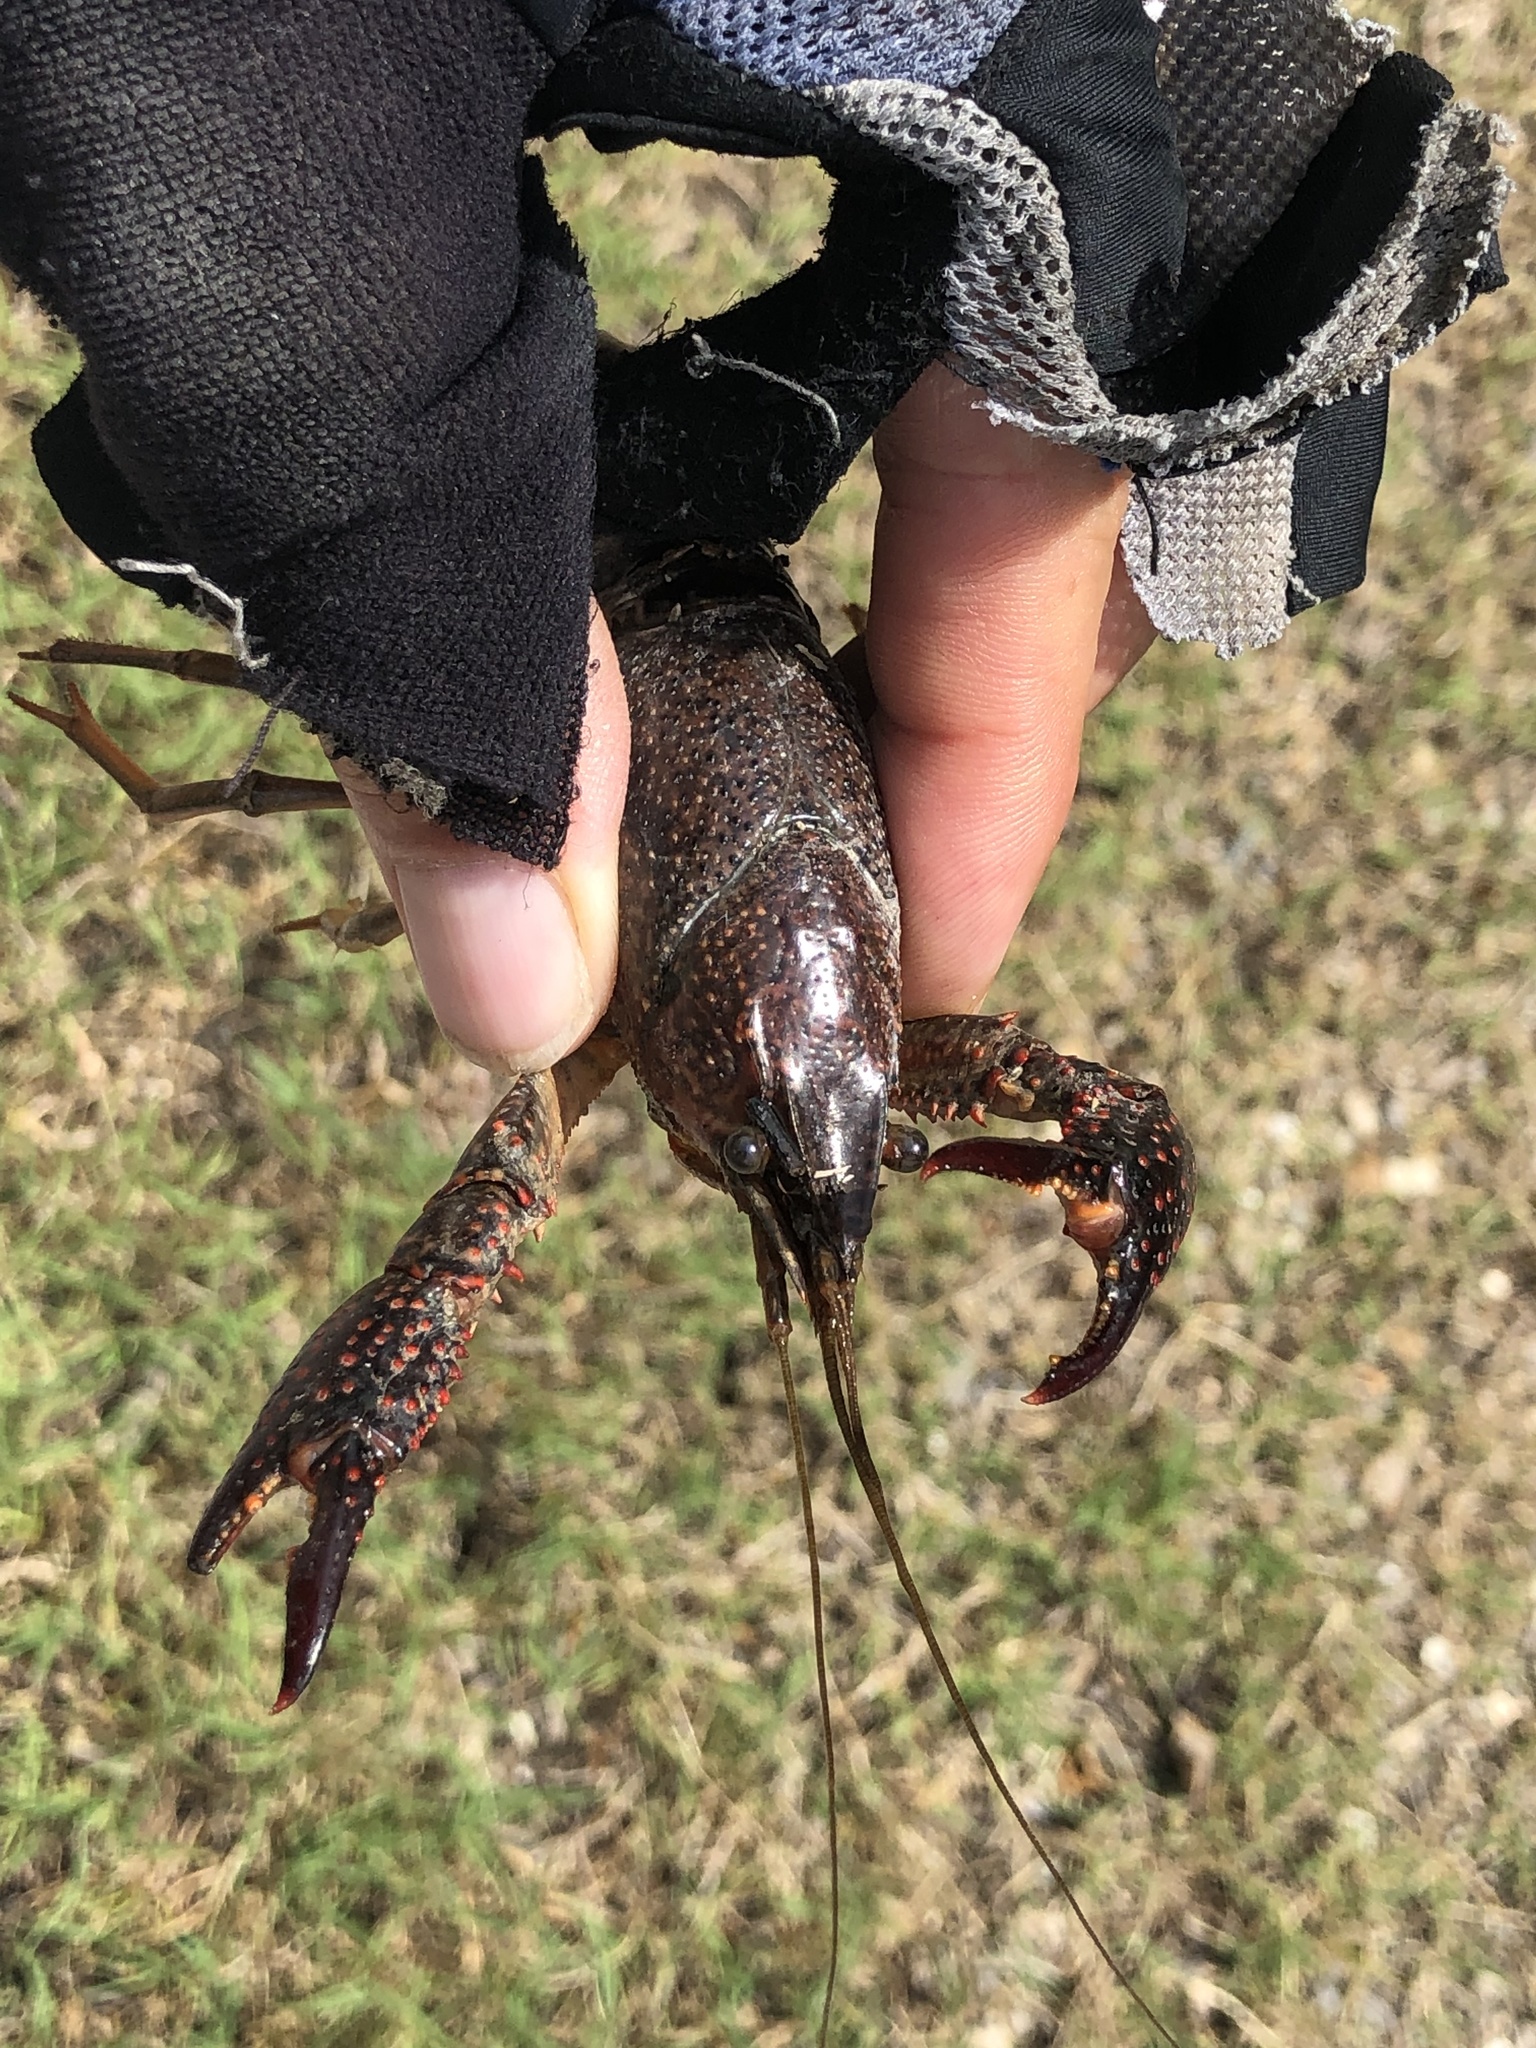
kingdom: Animalia
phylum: Arthropoda
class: Malacostraca
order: Decapoda
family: Cambaridae
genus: Procambarus
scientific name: Procambarus clarkii
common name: Red swamp crayfish
